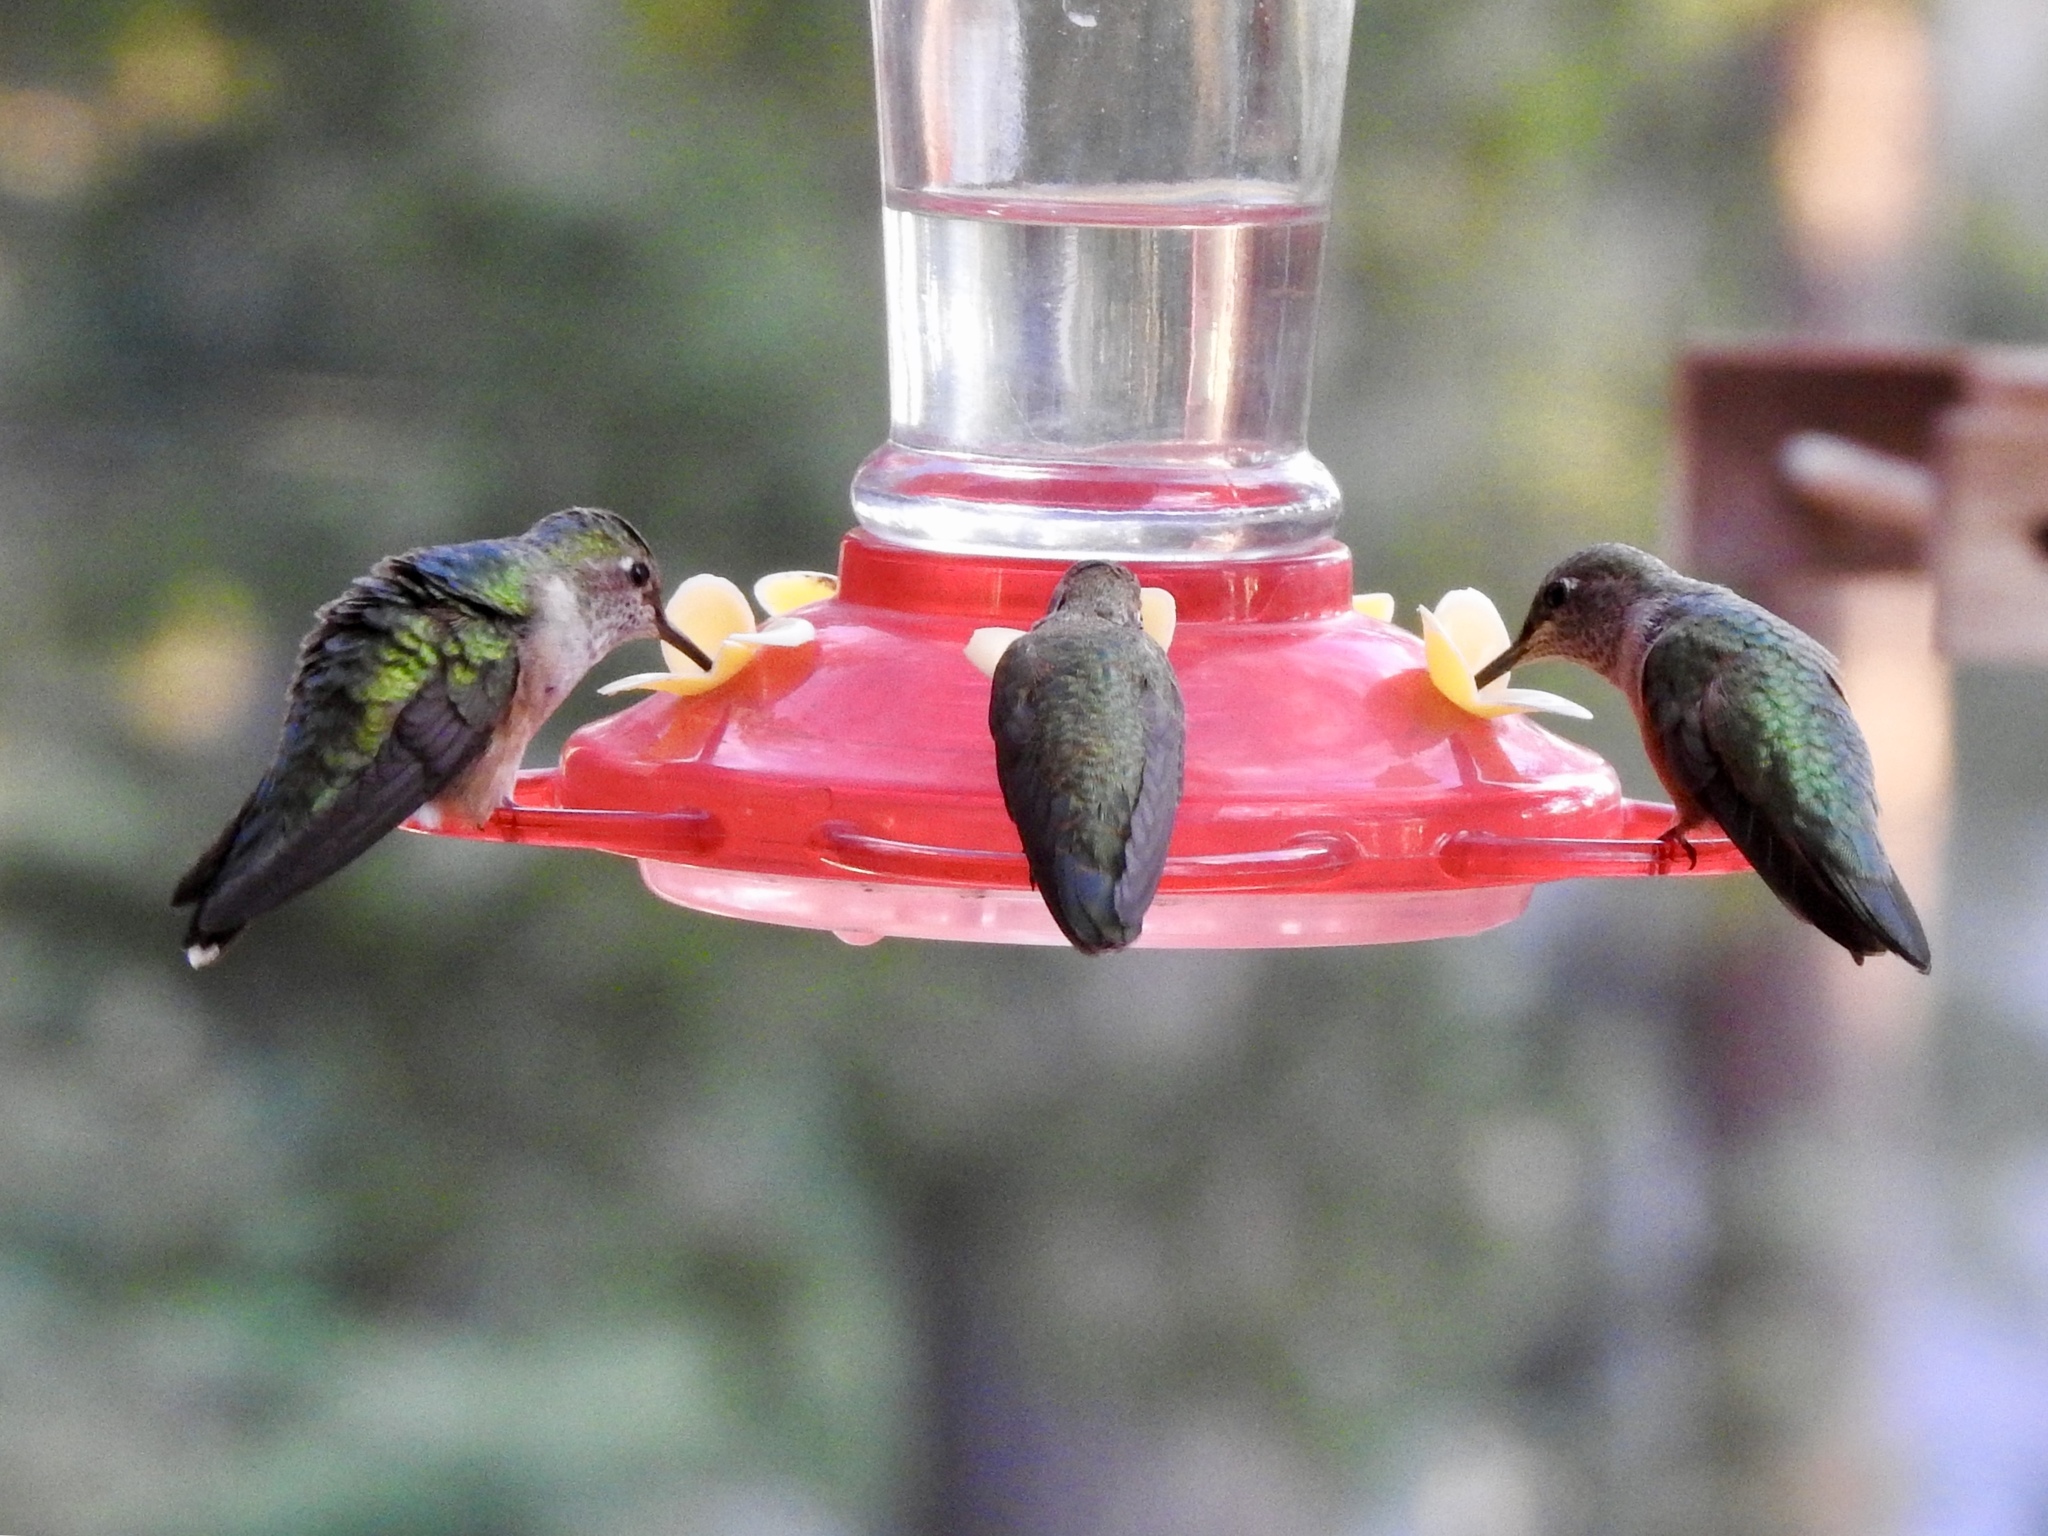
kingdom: Animalia
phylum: Chordata
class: Aves
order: Apodiformes
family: Trochilidae
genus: Selasphorus
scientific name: Selasphorus platycercus
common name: Broad-tailed hummingbird
